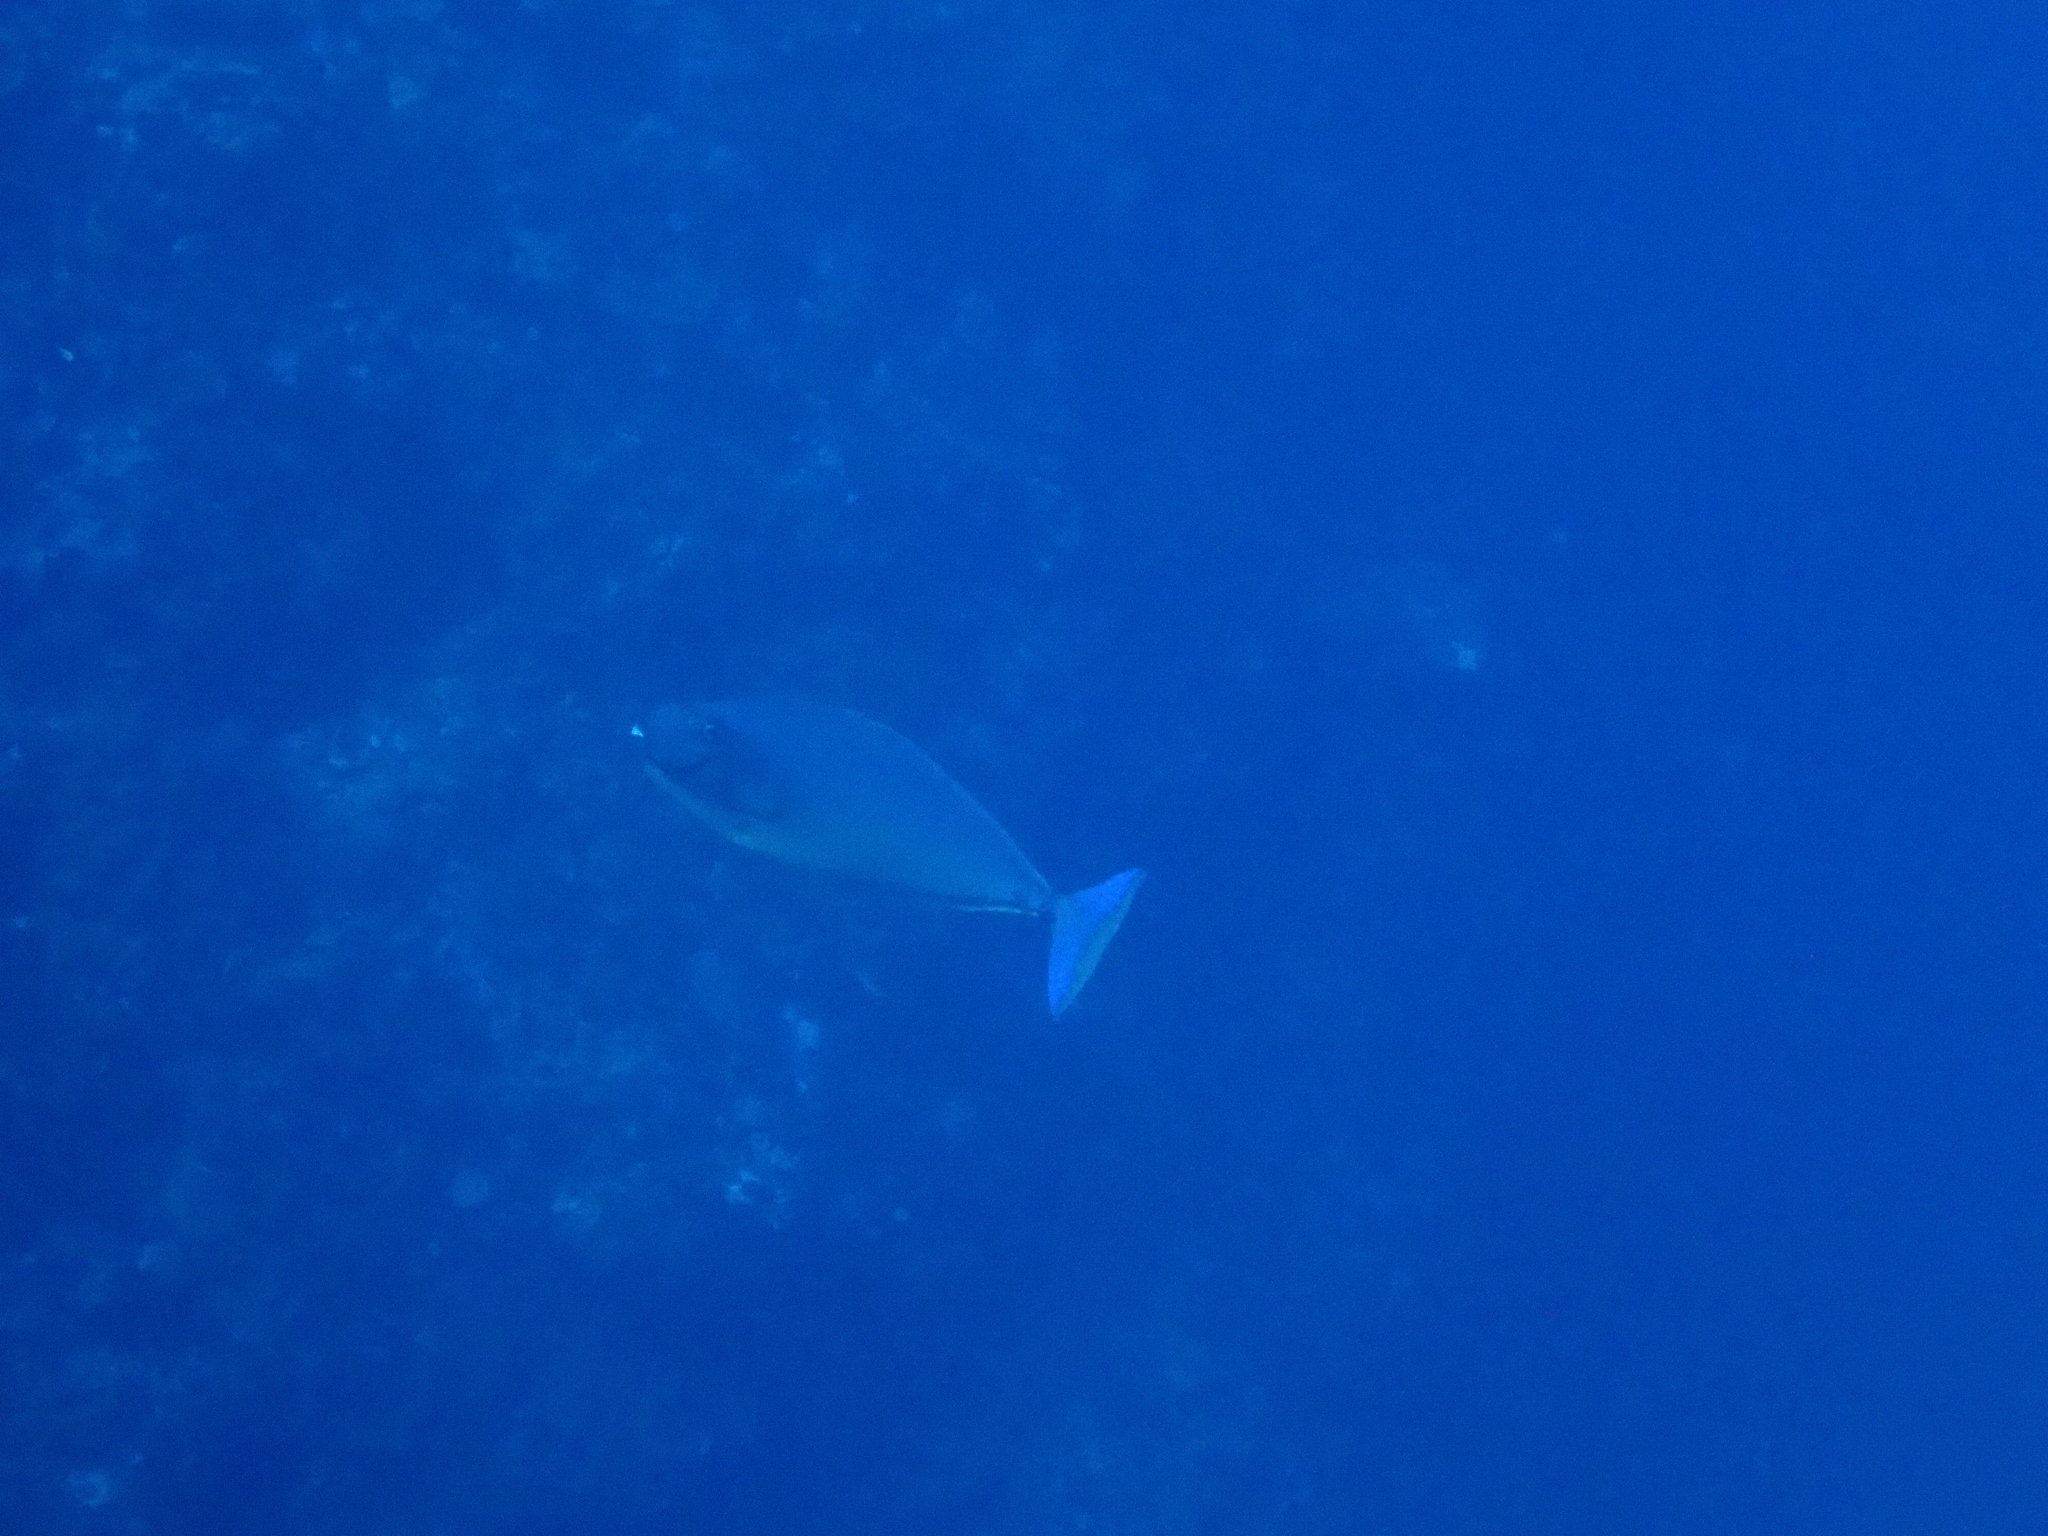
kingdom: Animalia
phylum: Chordata
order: Perciformes
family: Acanthuridae
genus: Naso
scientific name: Naso hexacanthus
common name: Black unicornfish
